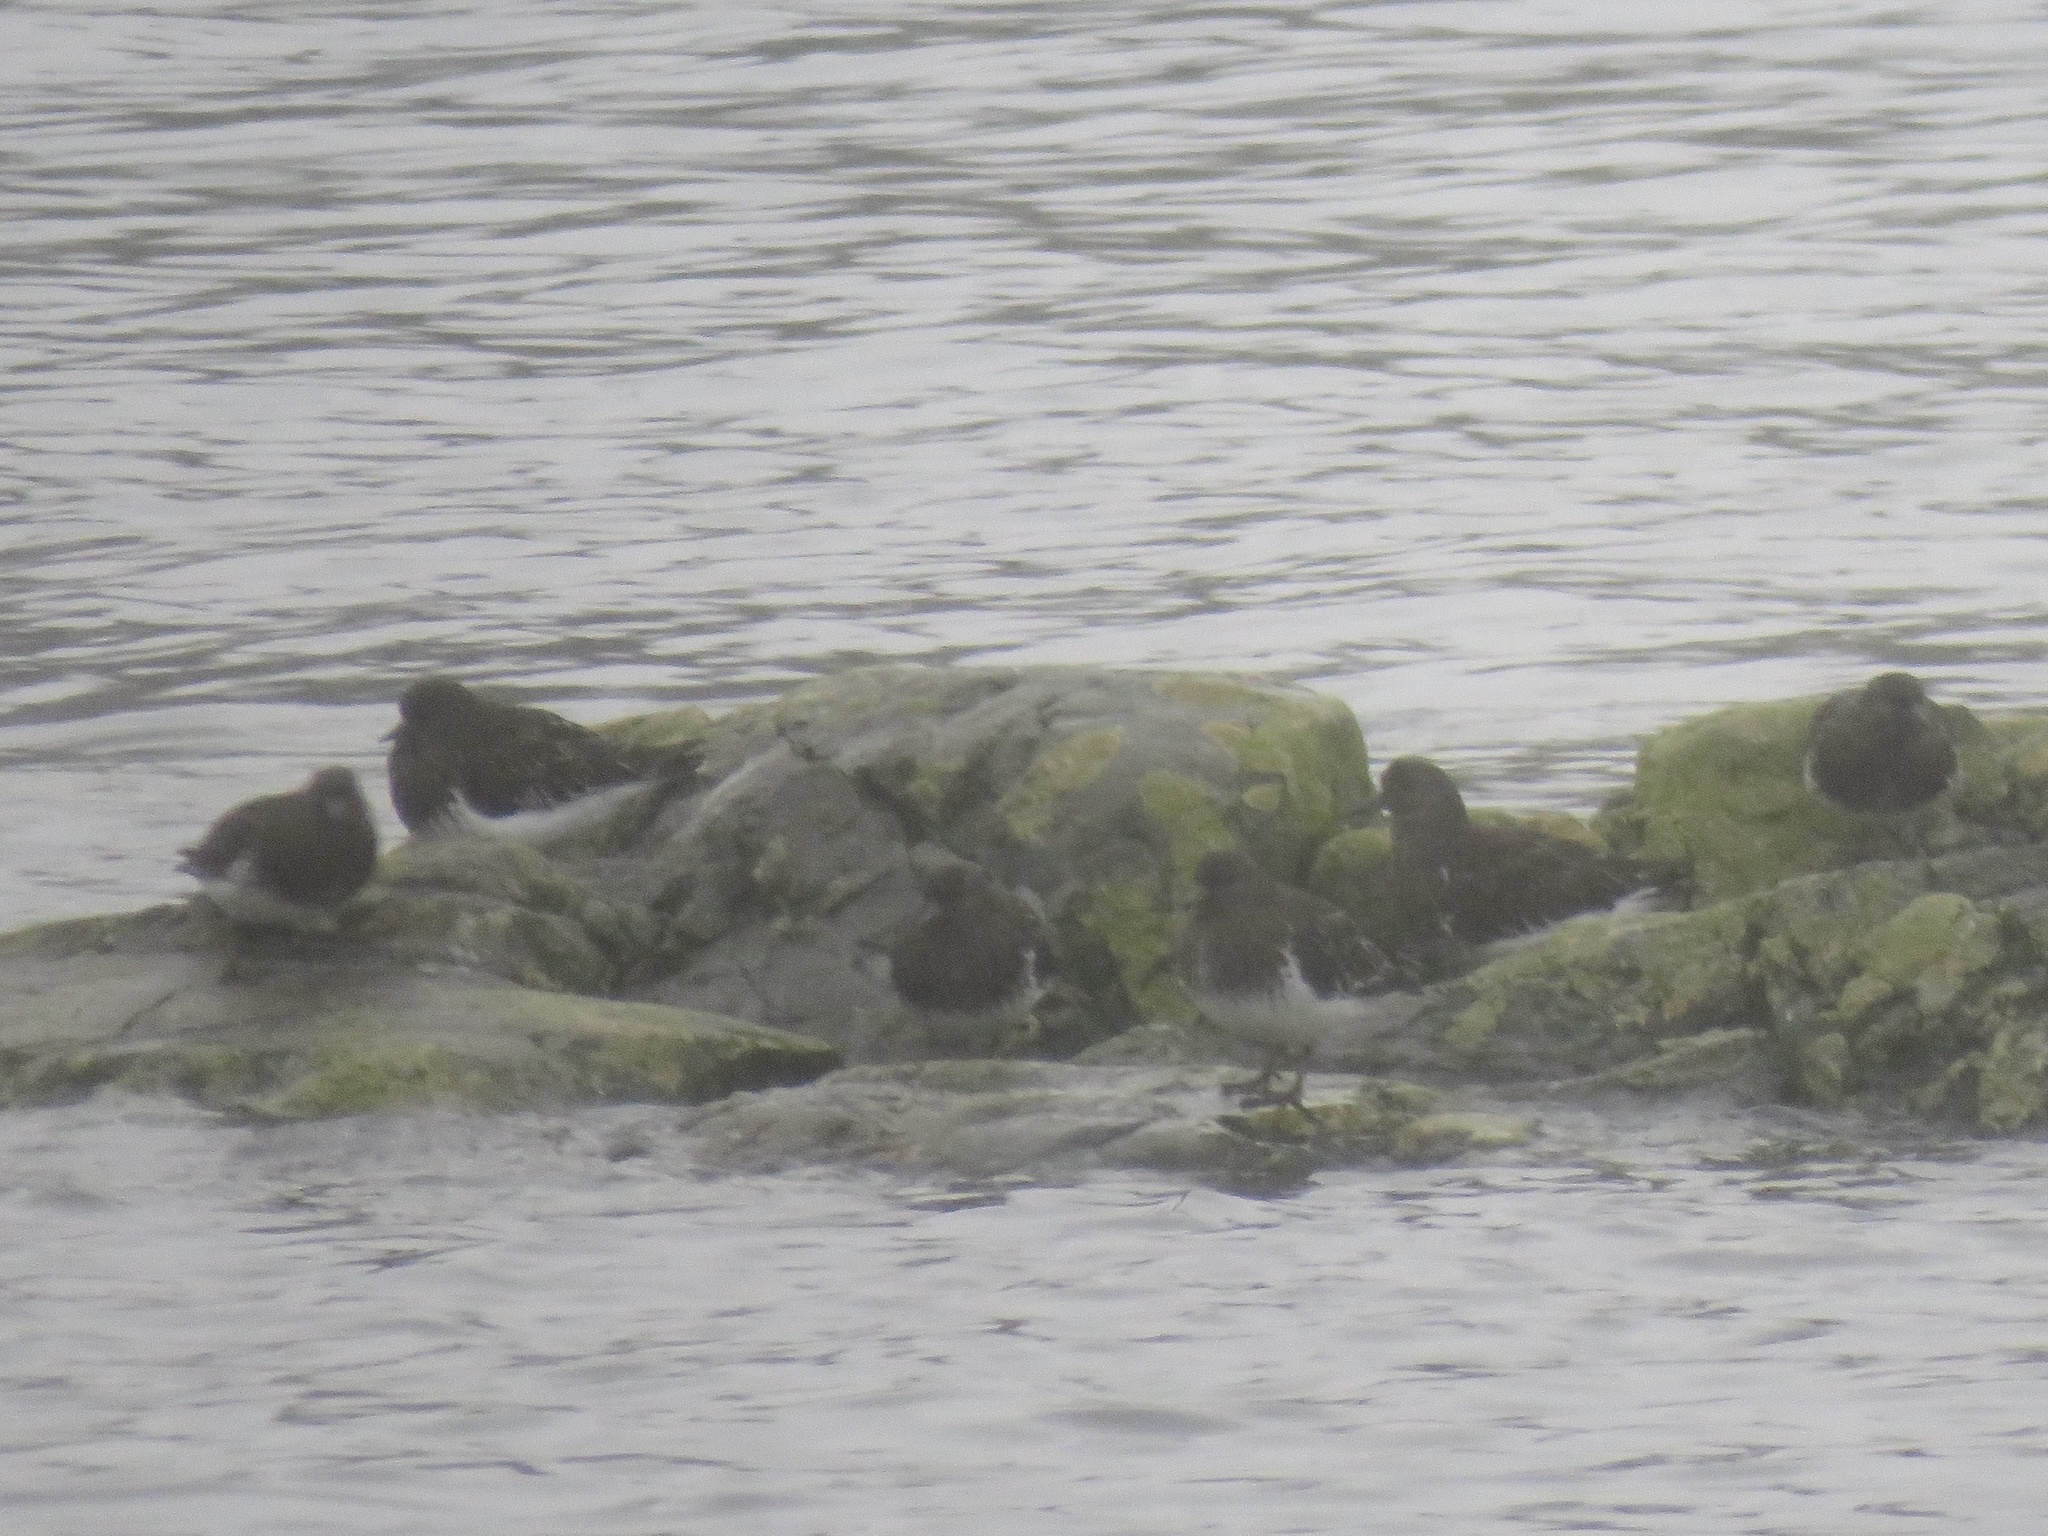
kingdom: Animalia
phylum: Chordata
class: Aves
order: Charadriiformes
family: Scolopacidae
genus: Arenaria
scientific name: Arenaria melanocephala
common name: Black turnstone
